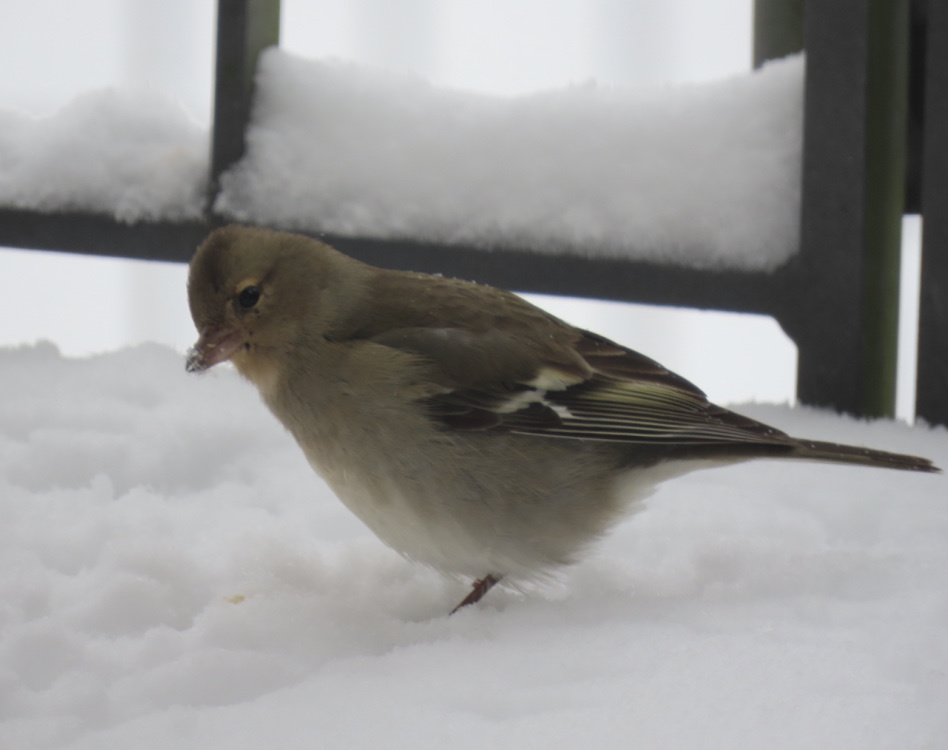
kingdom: Animalia
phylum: Chordata
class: Aves
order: Passeriformes
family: Fringillidae
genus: Fringilla
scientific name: Fringilla coelebs
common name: Common chaffinch
